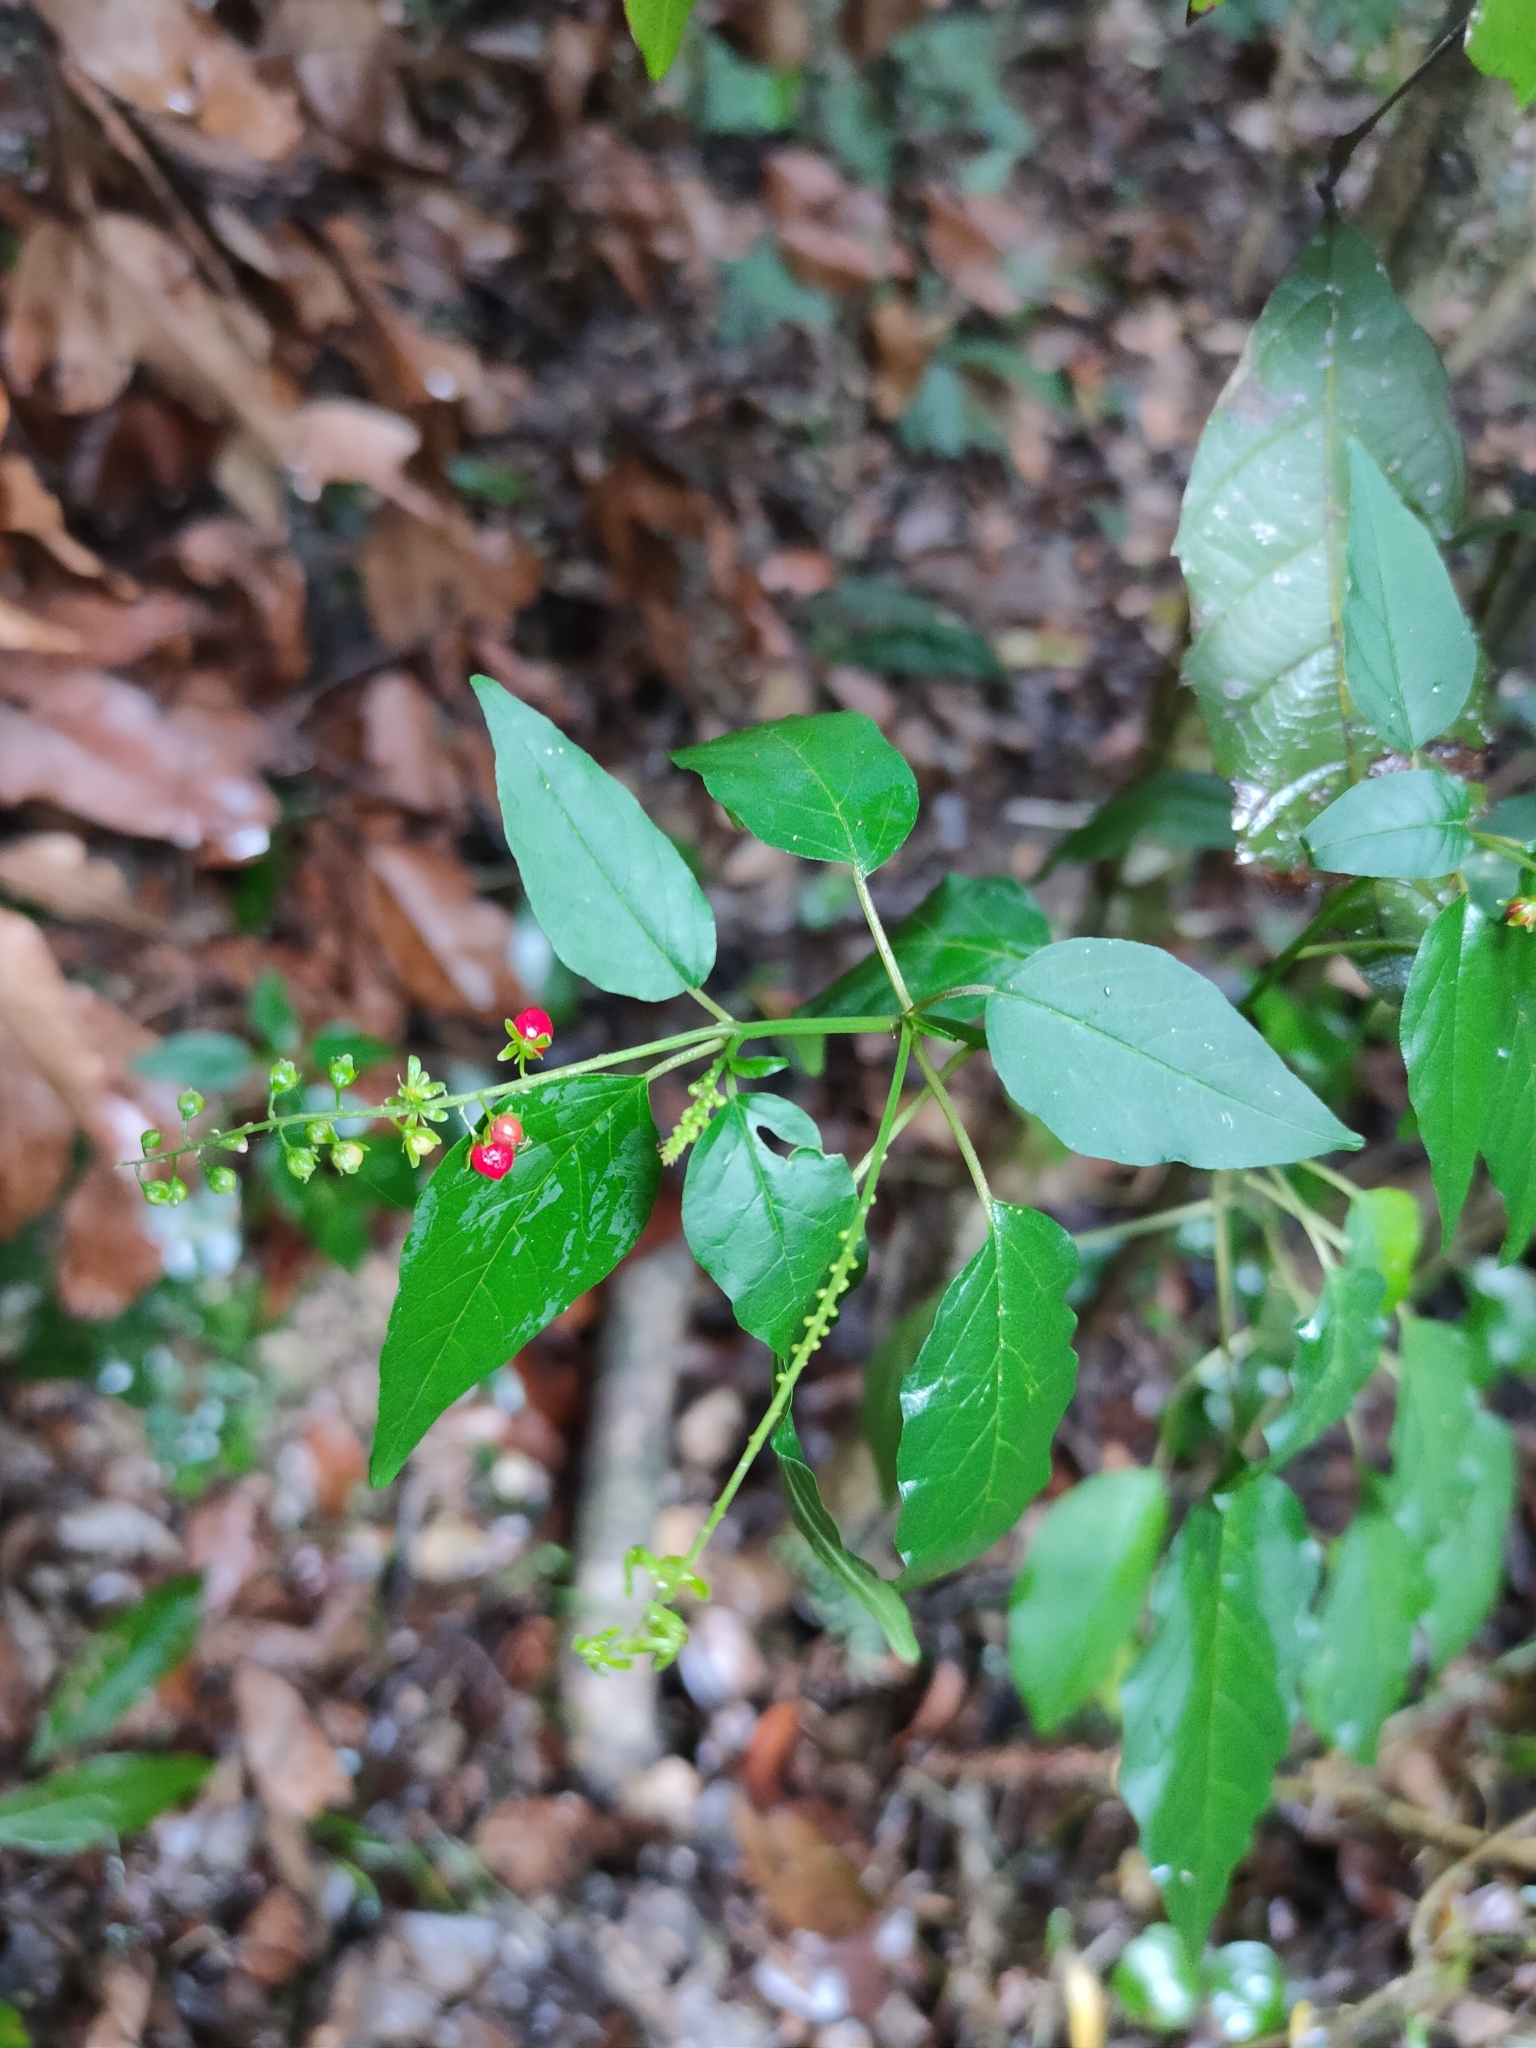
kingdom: Plantae
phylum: Tracheophyta
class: Magnoliopsida
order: Caryophyllales
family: Phytolaccaceae
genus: Rivina
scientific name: Rivina humilis
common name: Rougeplant
